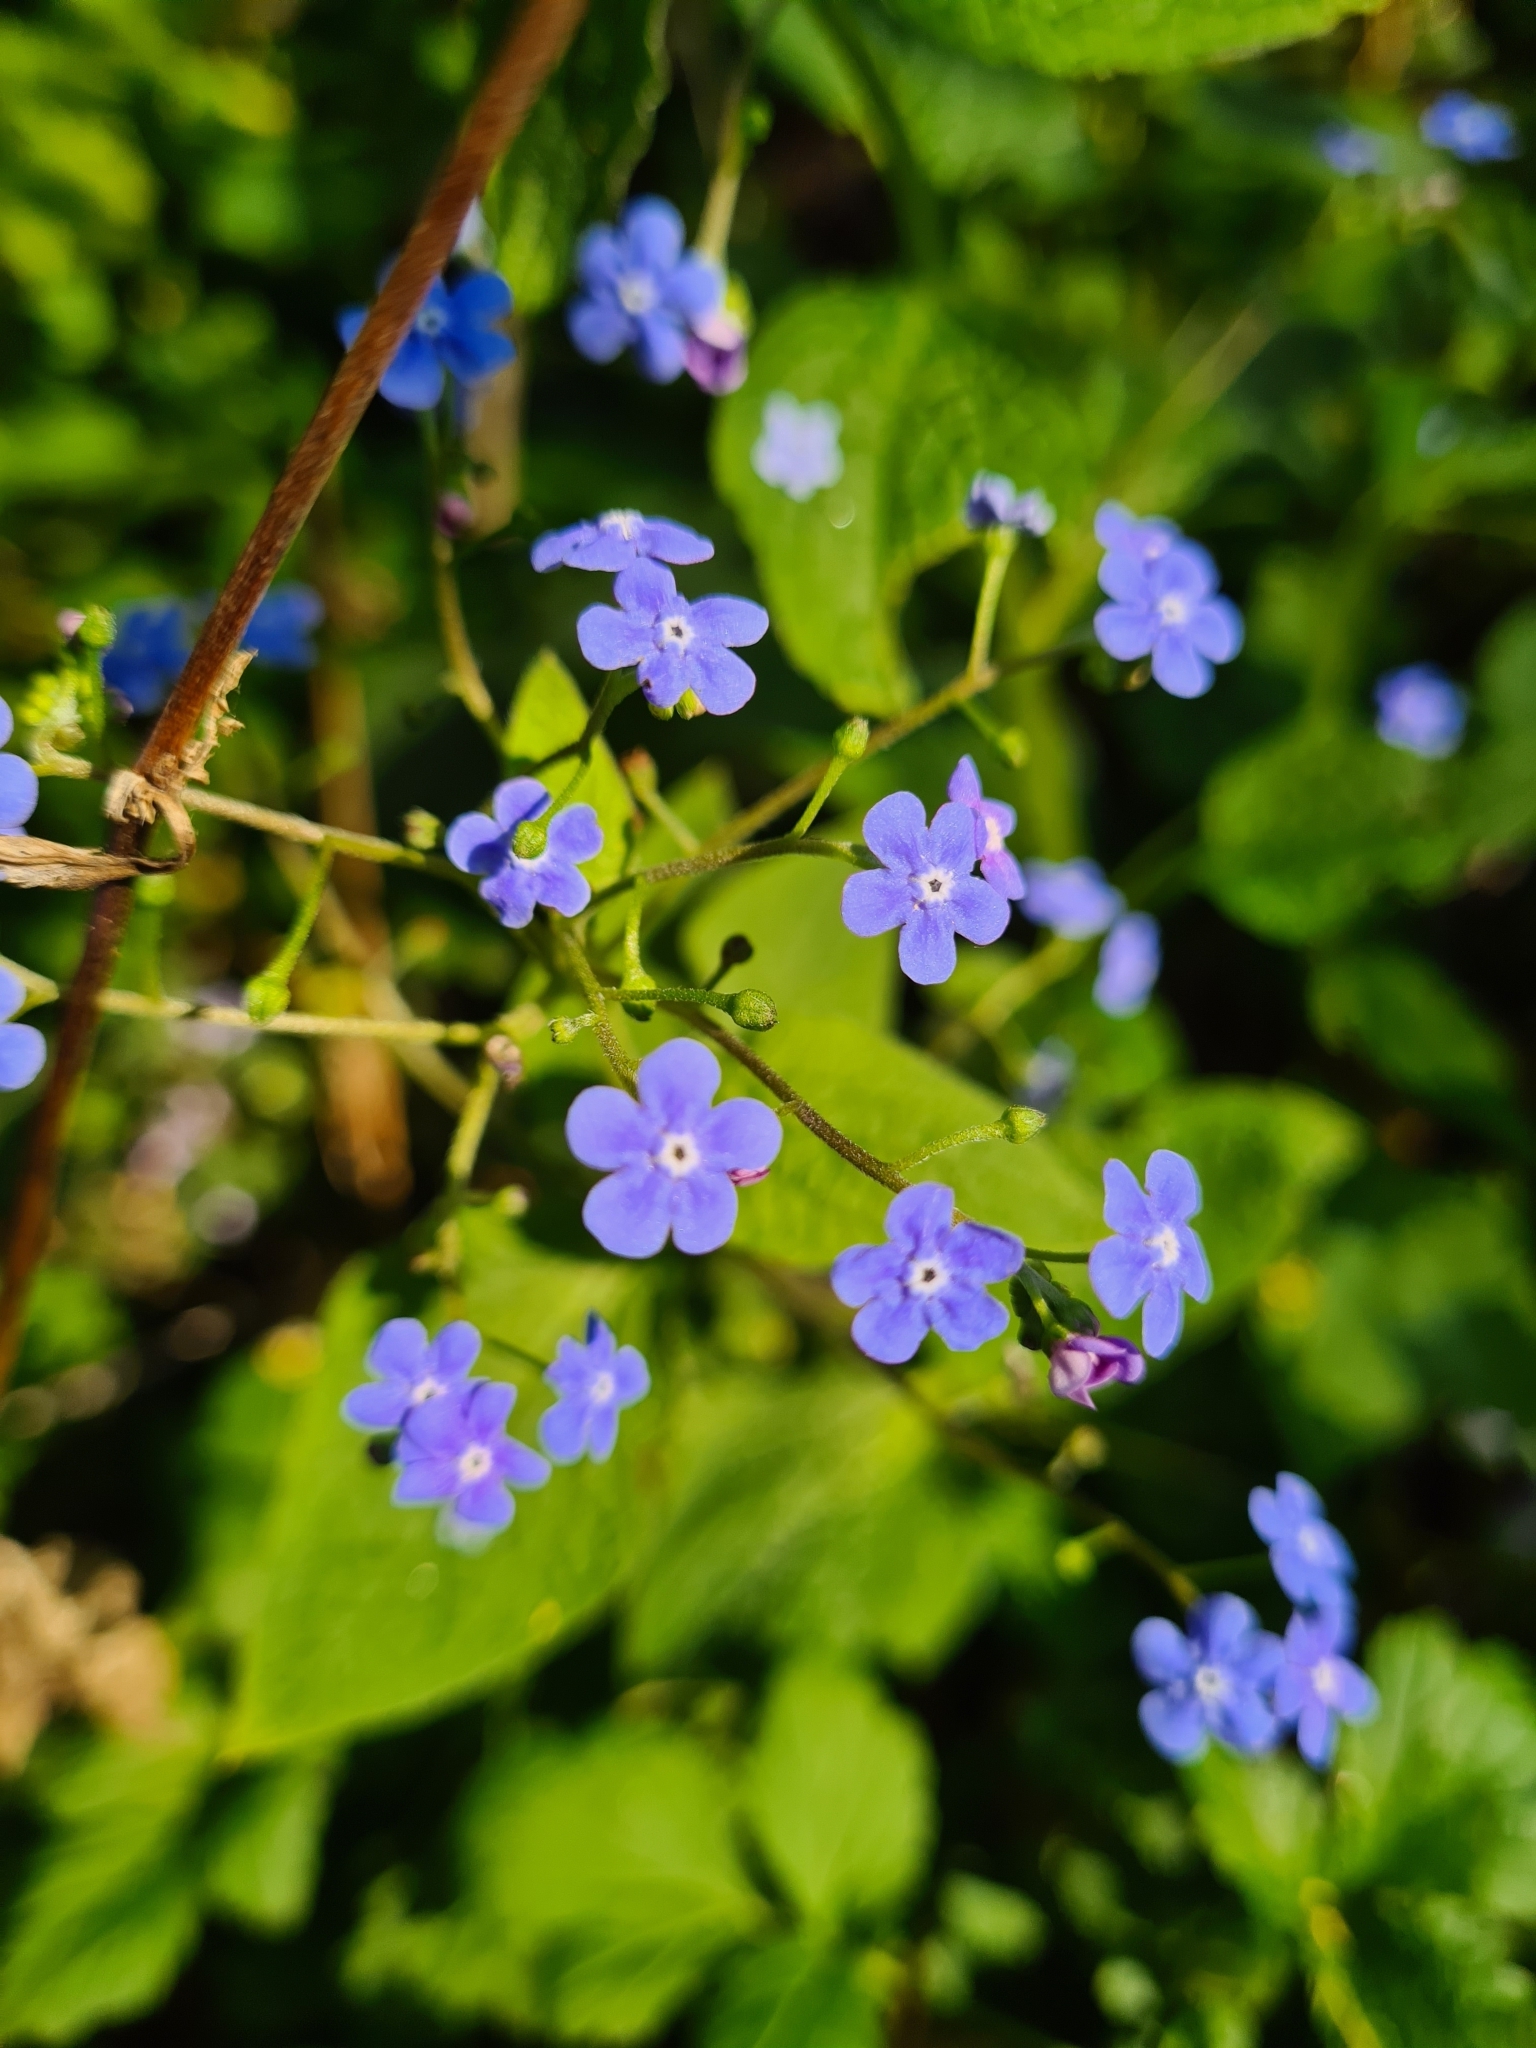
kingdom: Plantae
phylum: Tracheophyta
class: Magnoliopsida
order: Boraginales
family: Boraginaceae
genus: Brunnera
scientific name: Brunnera macrophylla
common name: Great forget-me-not
